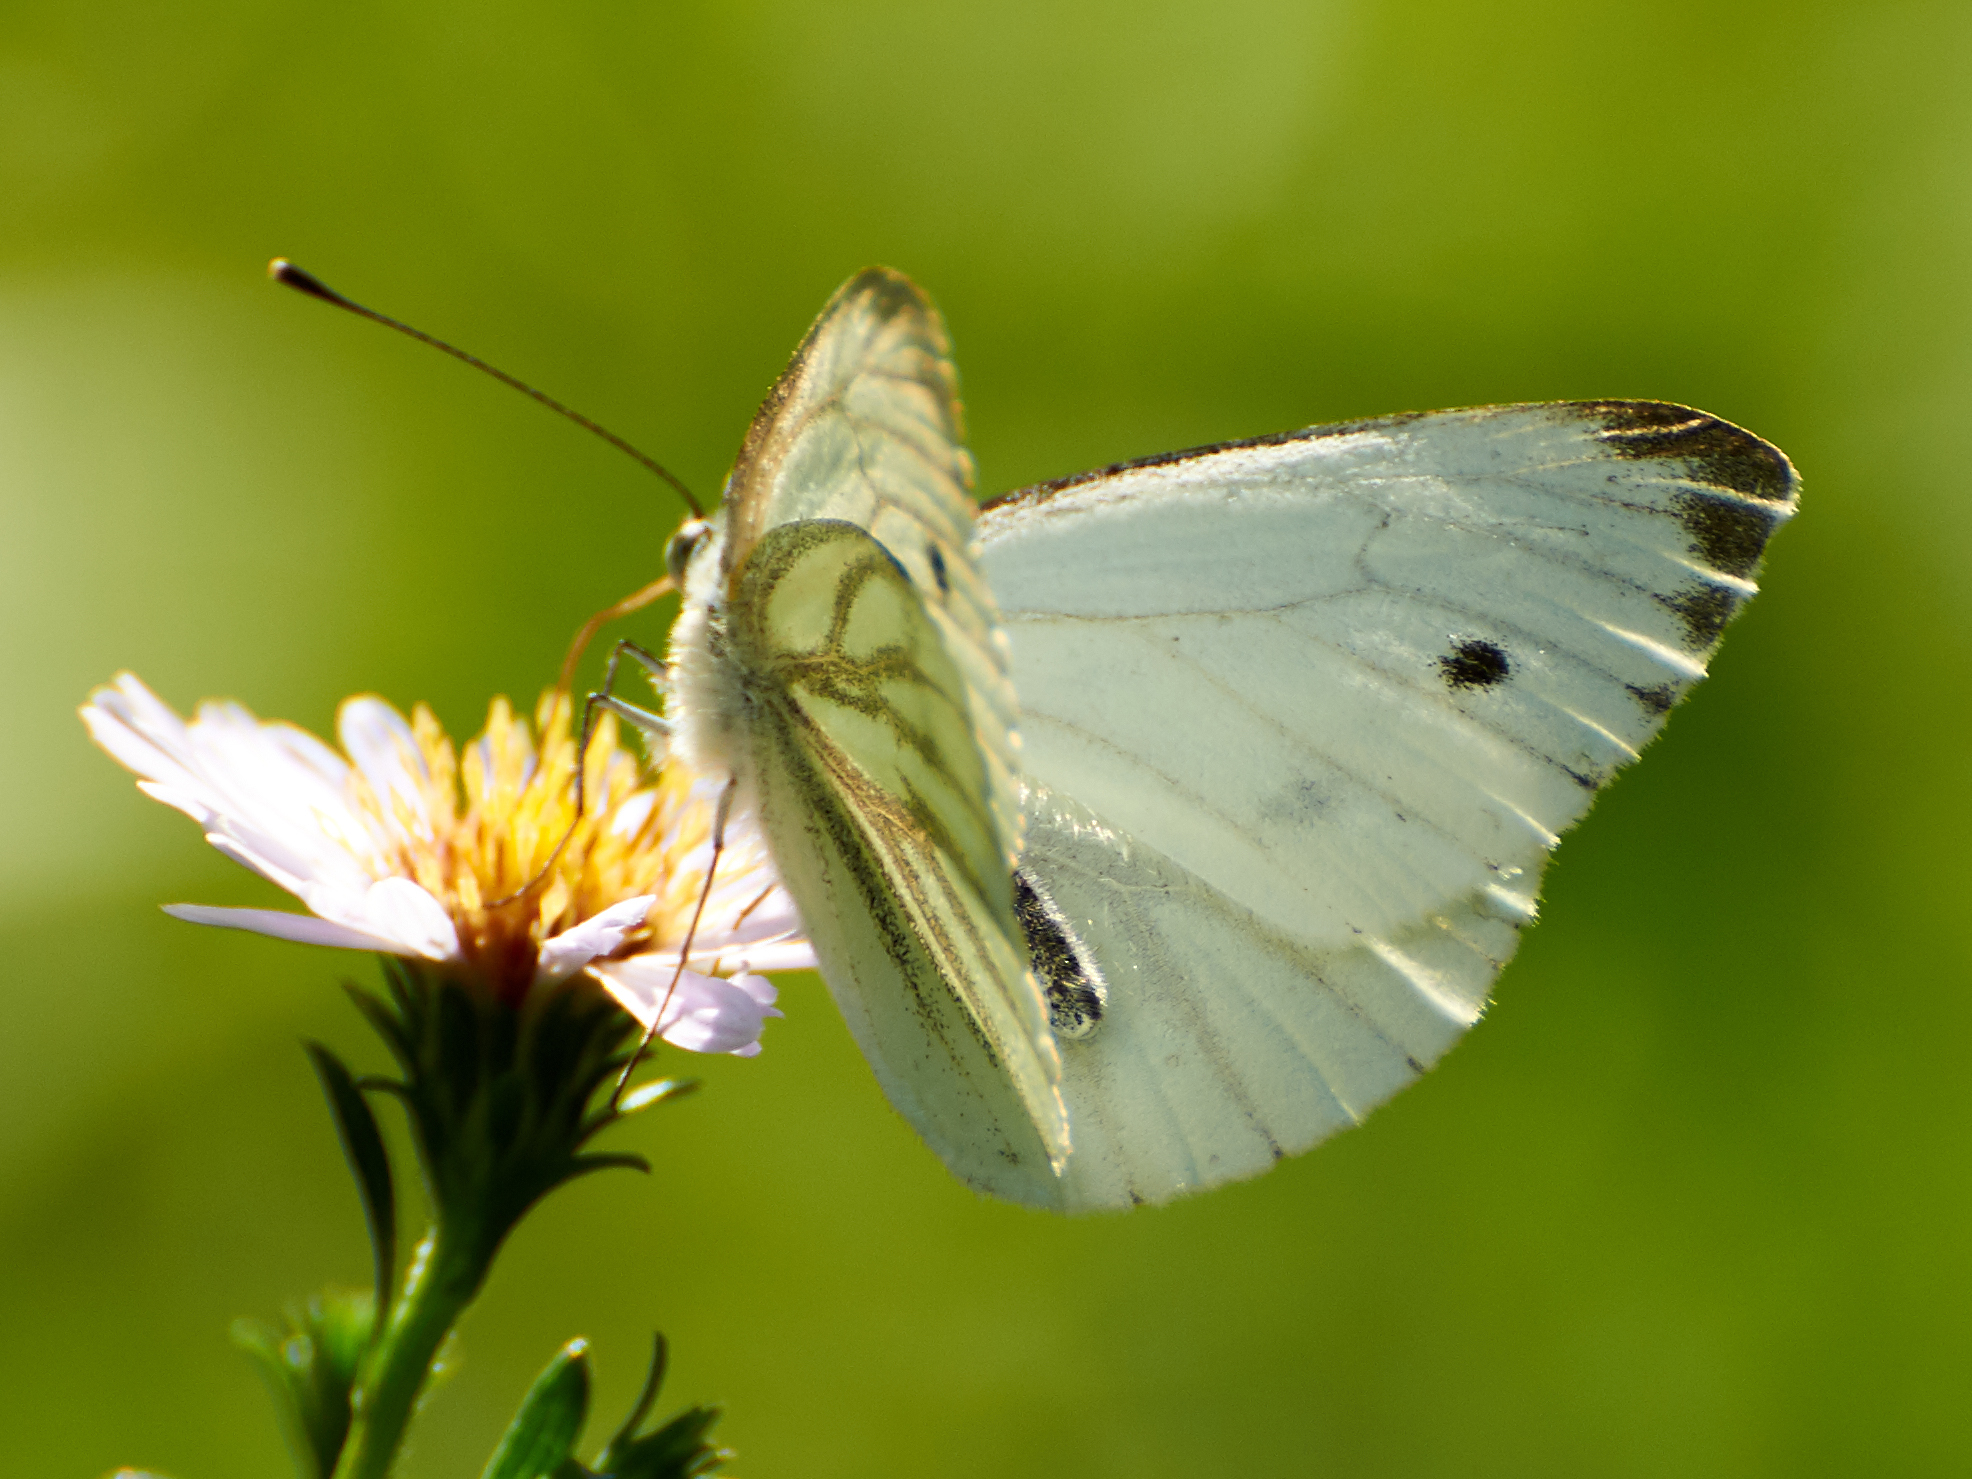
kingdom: Animalia
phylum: Arthropoda
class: Insecta
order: Lepidoptera
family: Pieridae
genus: Pieris
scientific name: Pieris napi
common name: Green-veined white
